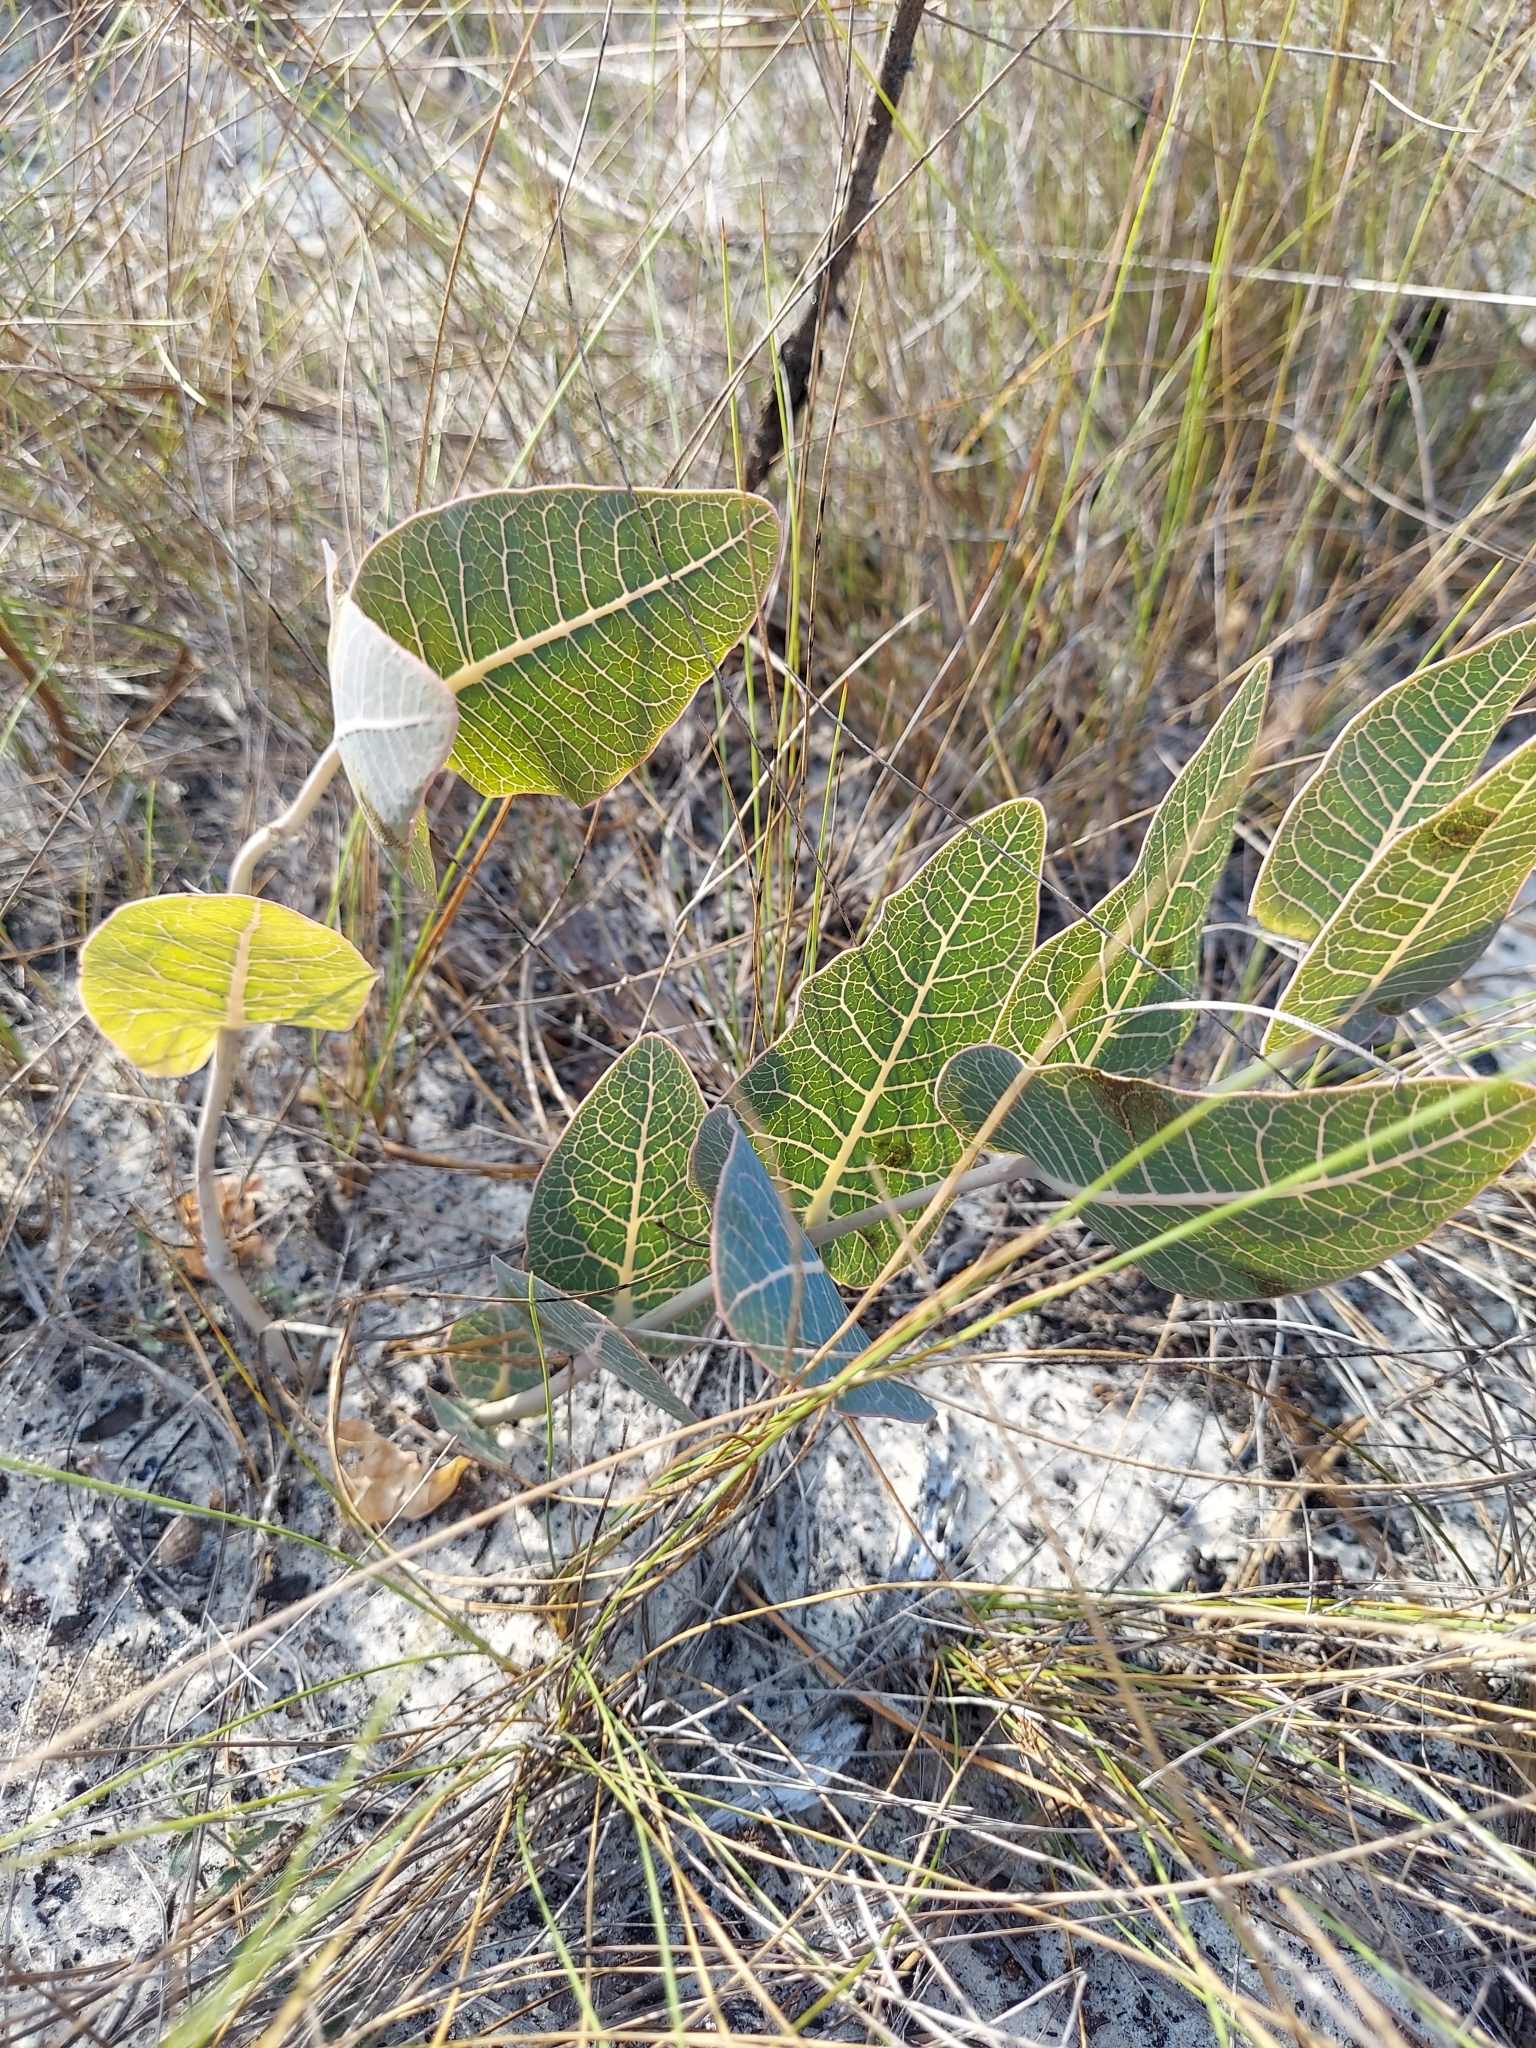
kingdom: Plantae
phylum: Tracheophyta
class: Magnoliopsida
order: Gentianales
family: Apocynaceae
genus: Asclepias
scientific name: Asclepias humistrata
